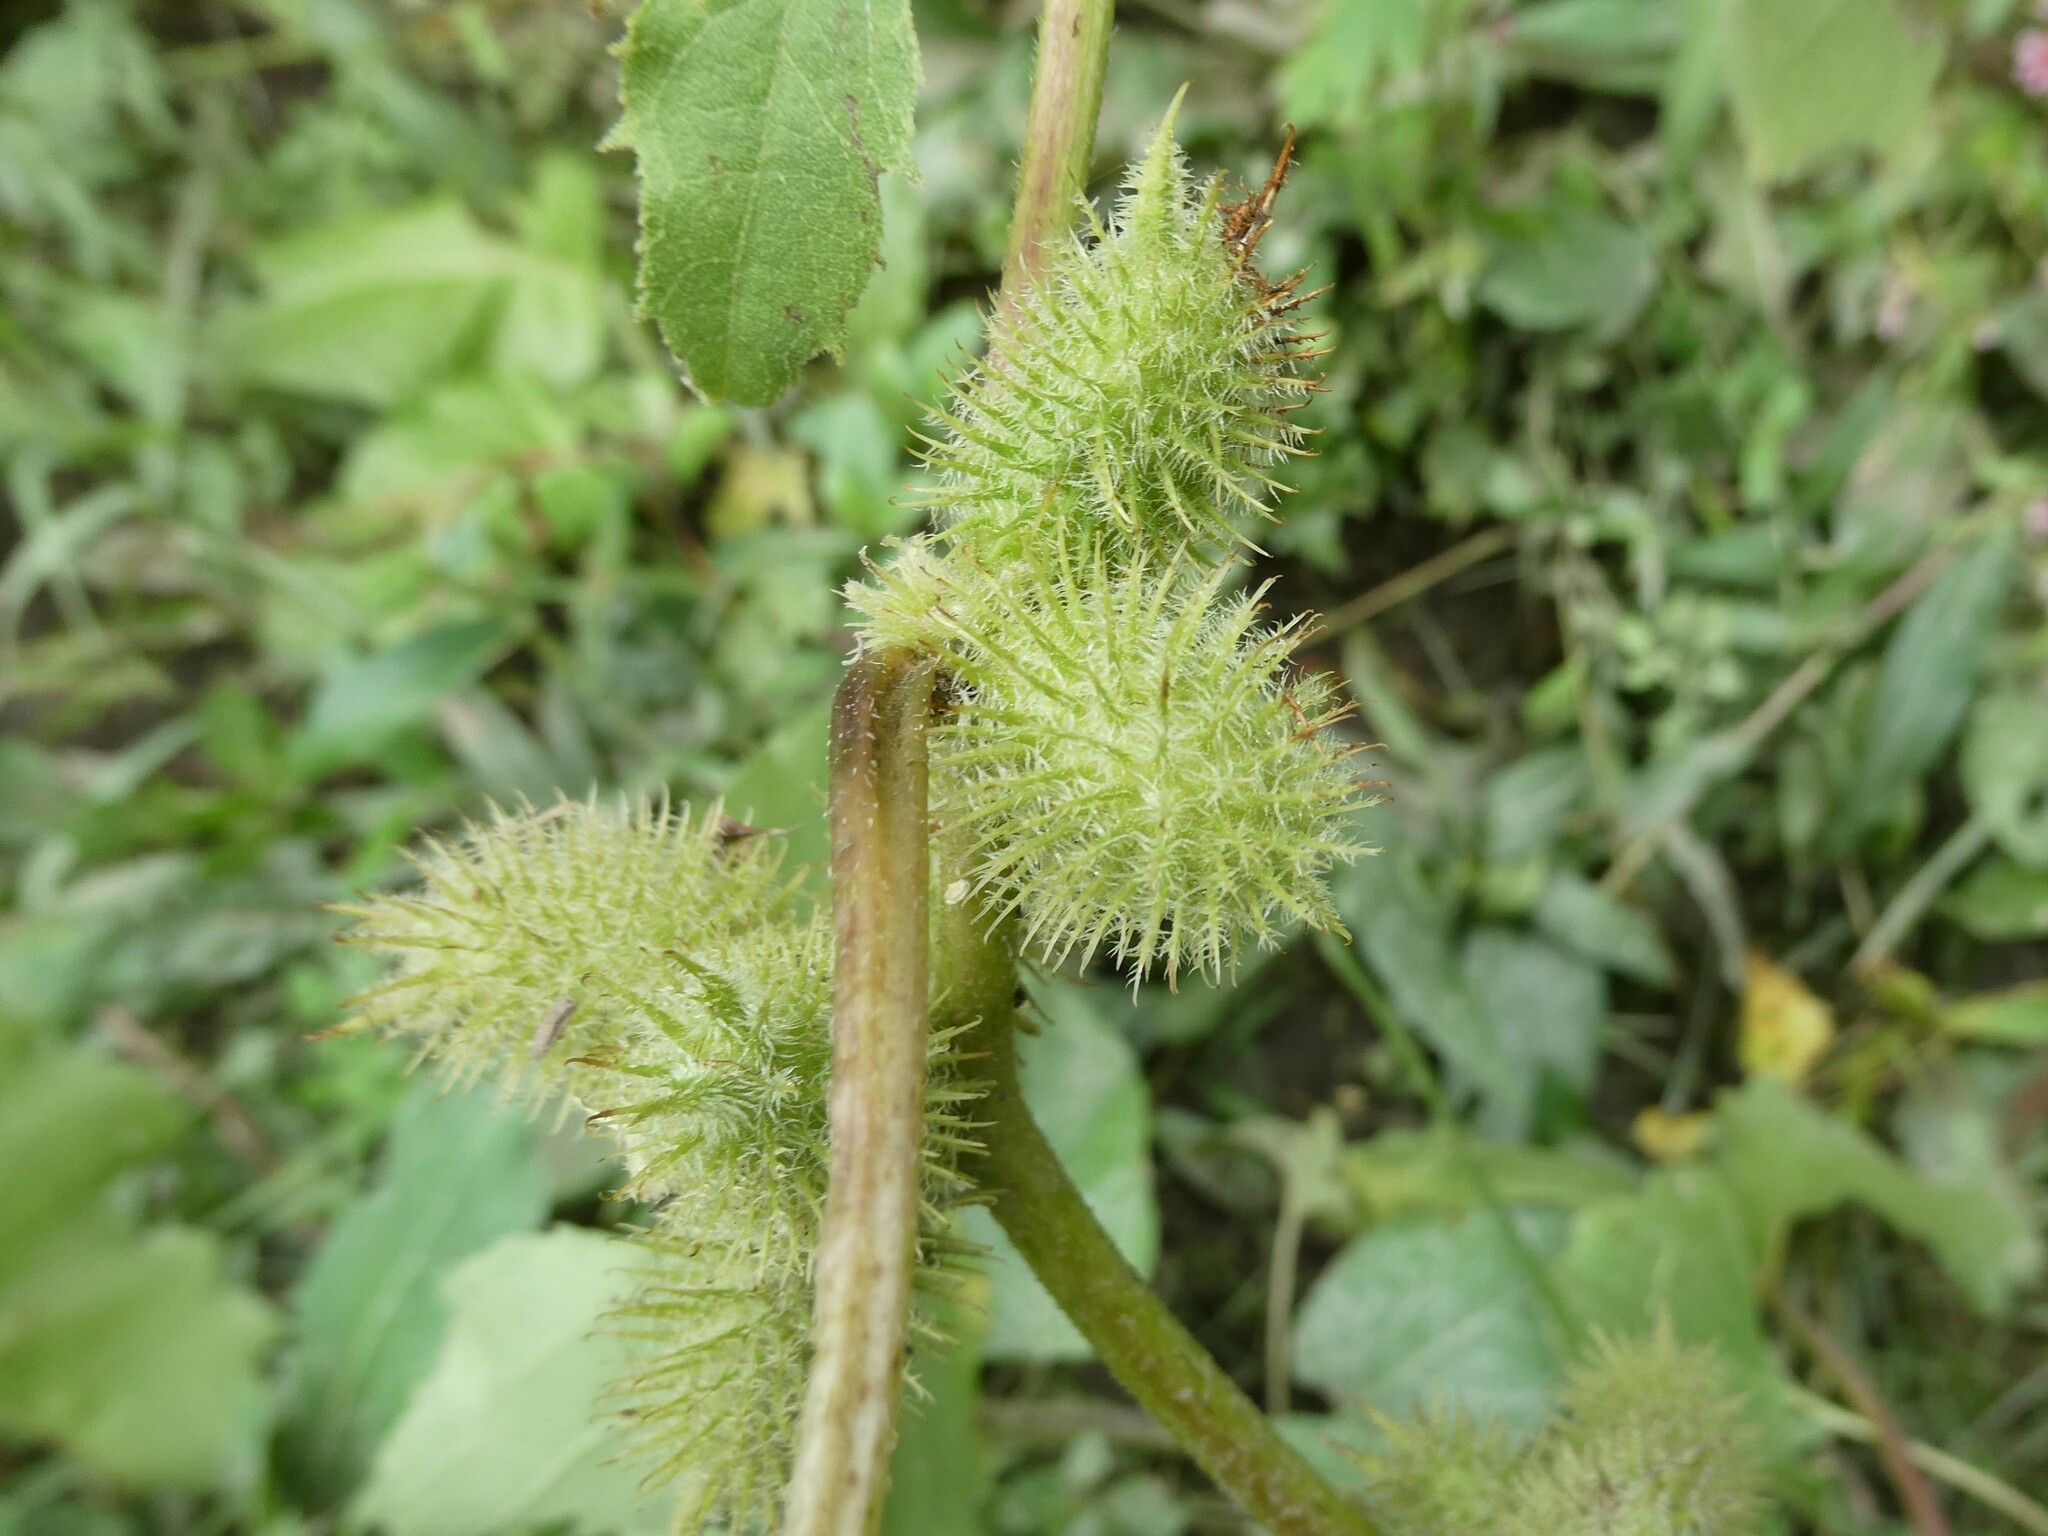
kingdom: Plantae
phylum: Tracheophyta
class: Magnoliopsida
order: Asterales
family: Asteraceae
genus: Xanthium
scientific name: Xanthium strumarium
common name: Rough cocklebur
